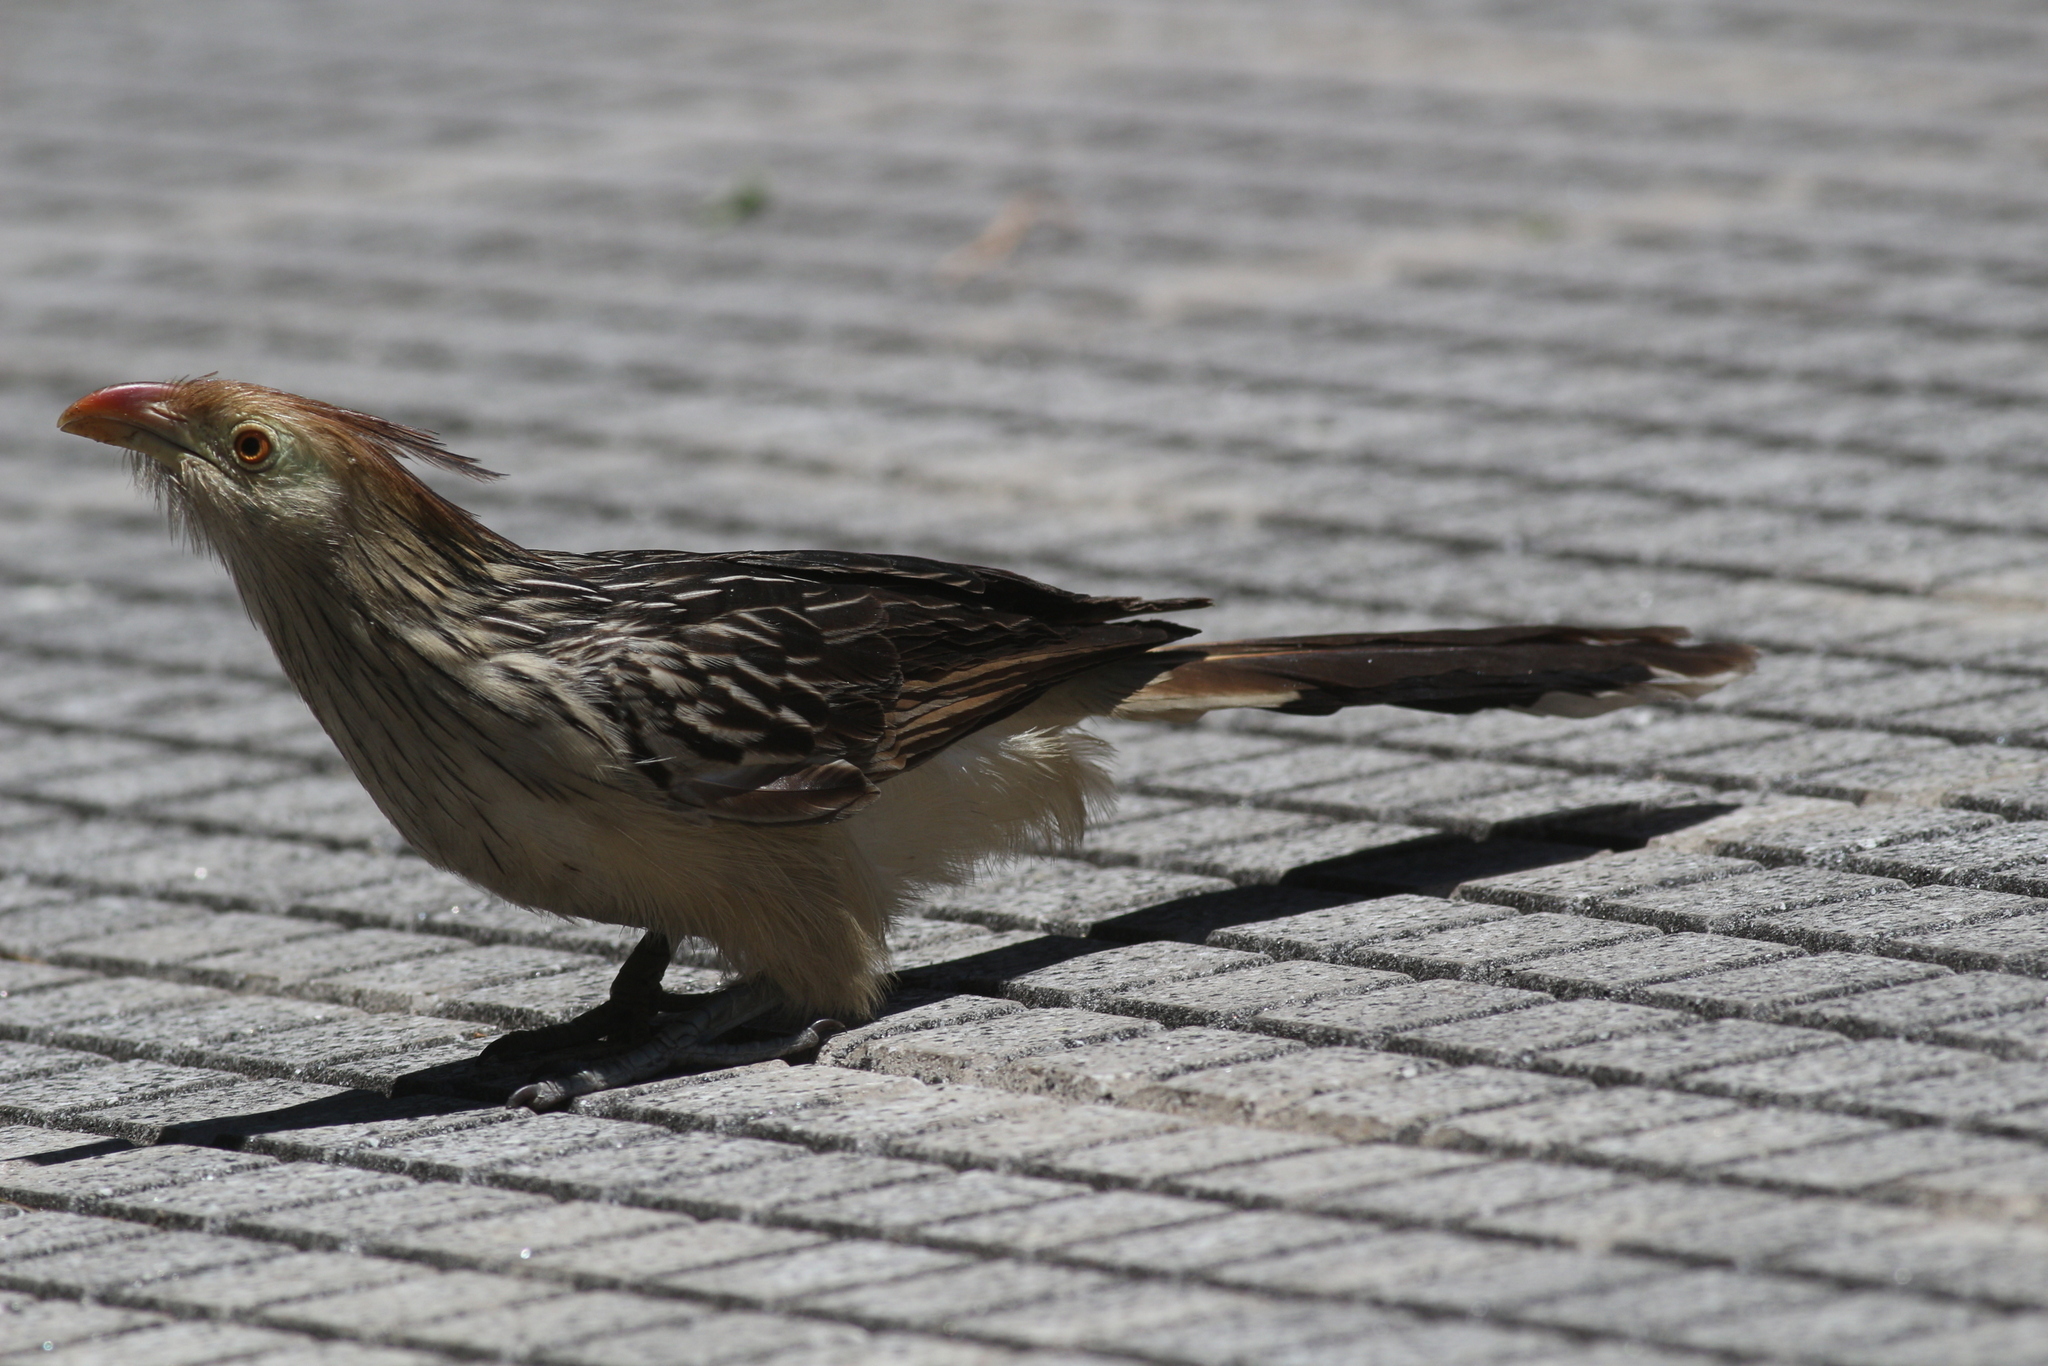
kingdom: Animalia
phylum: Chordata
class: Aves
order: Cuculiformes
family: Cuculidae
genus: Guira
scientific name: Guira guira
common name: Guira cuckoo
